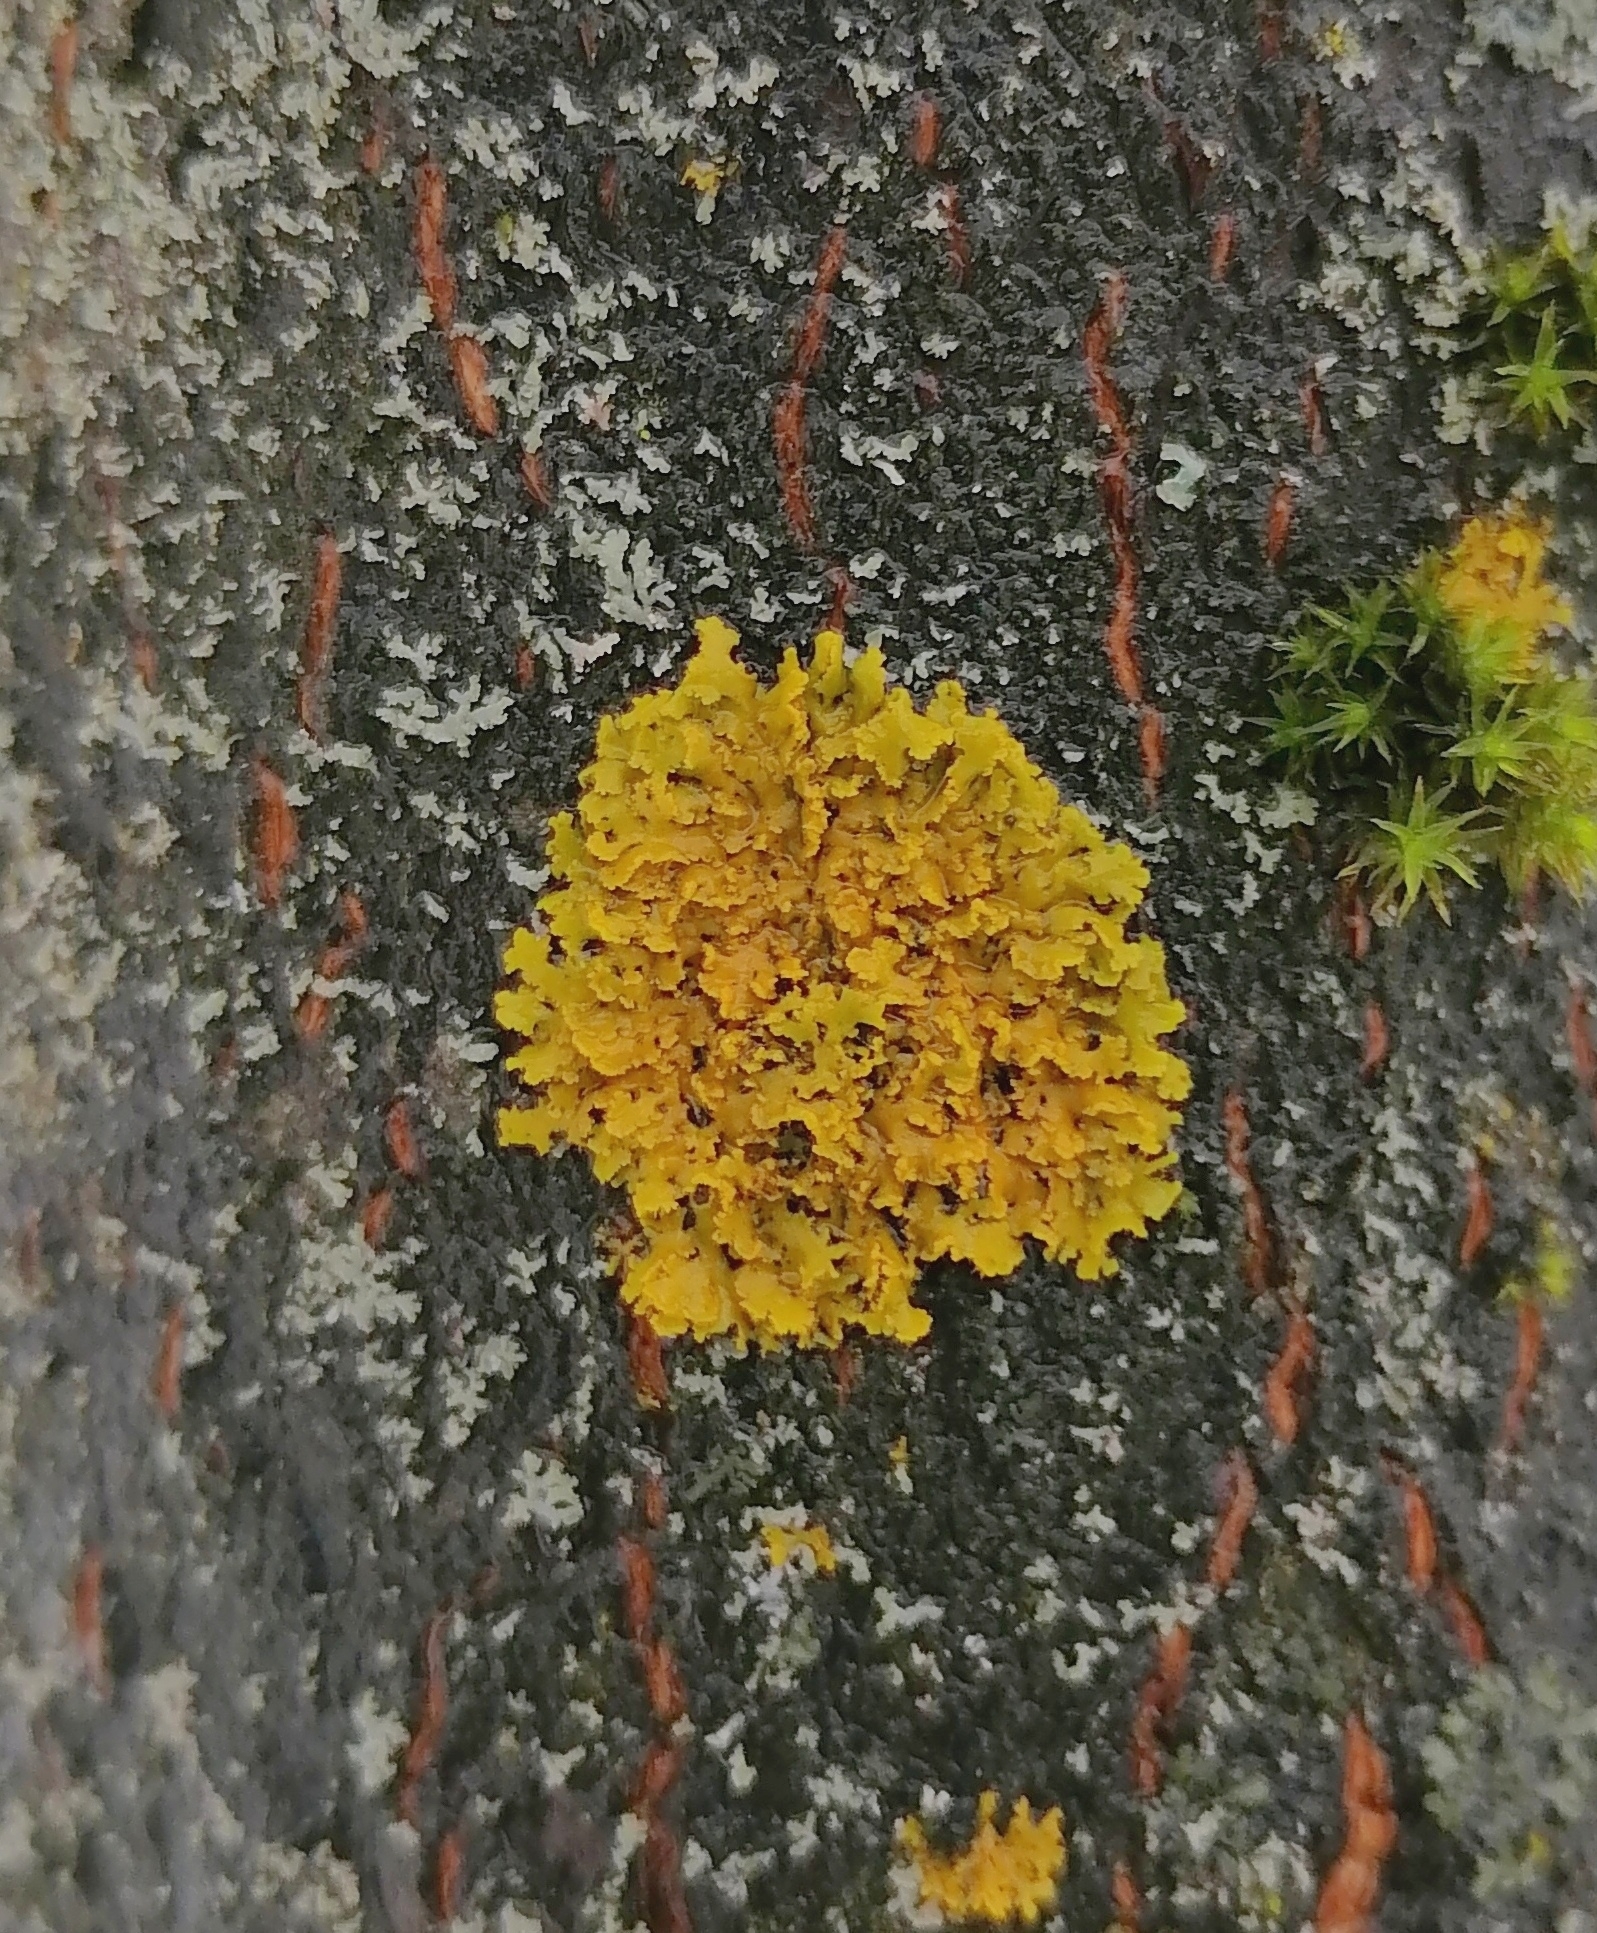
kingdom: Fungi
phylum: Ascomycota
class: Lecanoromycetes
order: Teloschistales
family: Teloschistaceae
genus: Xanthoria
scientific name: Xanthoria ulophyllodes
